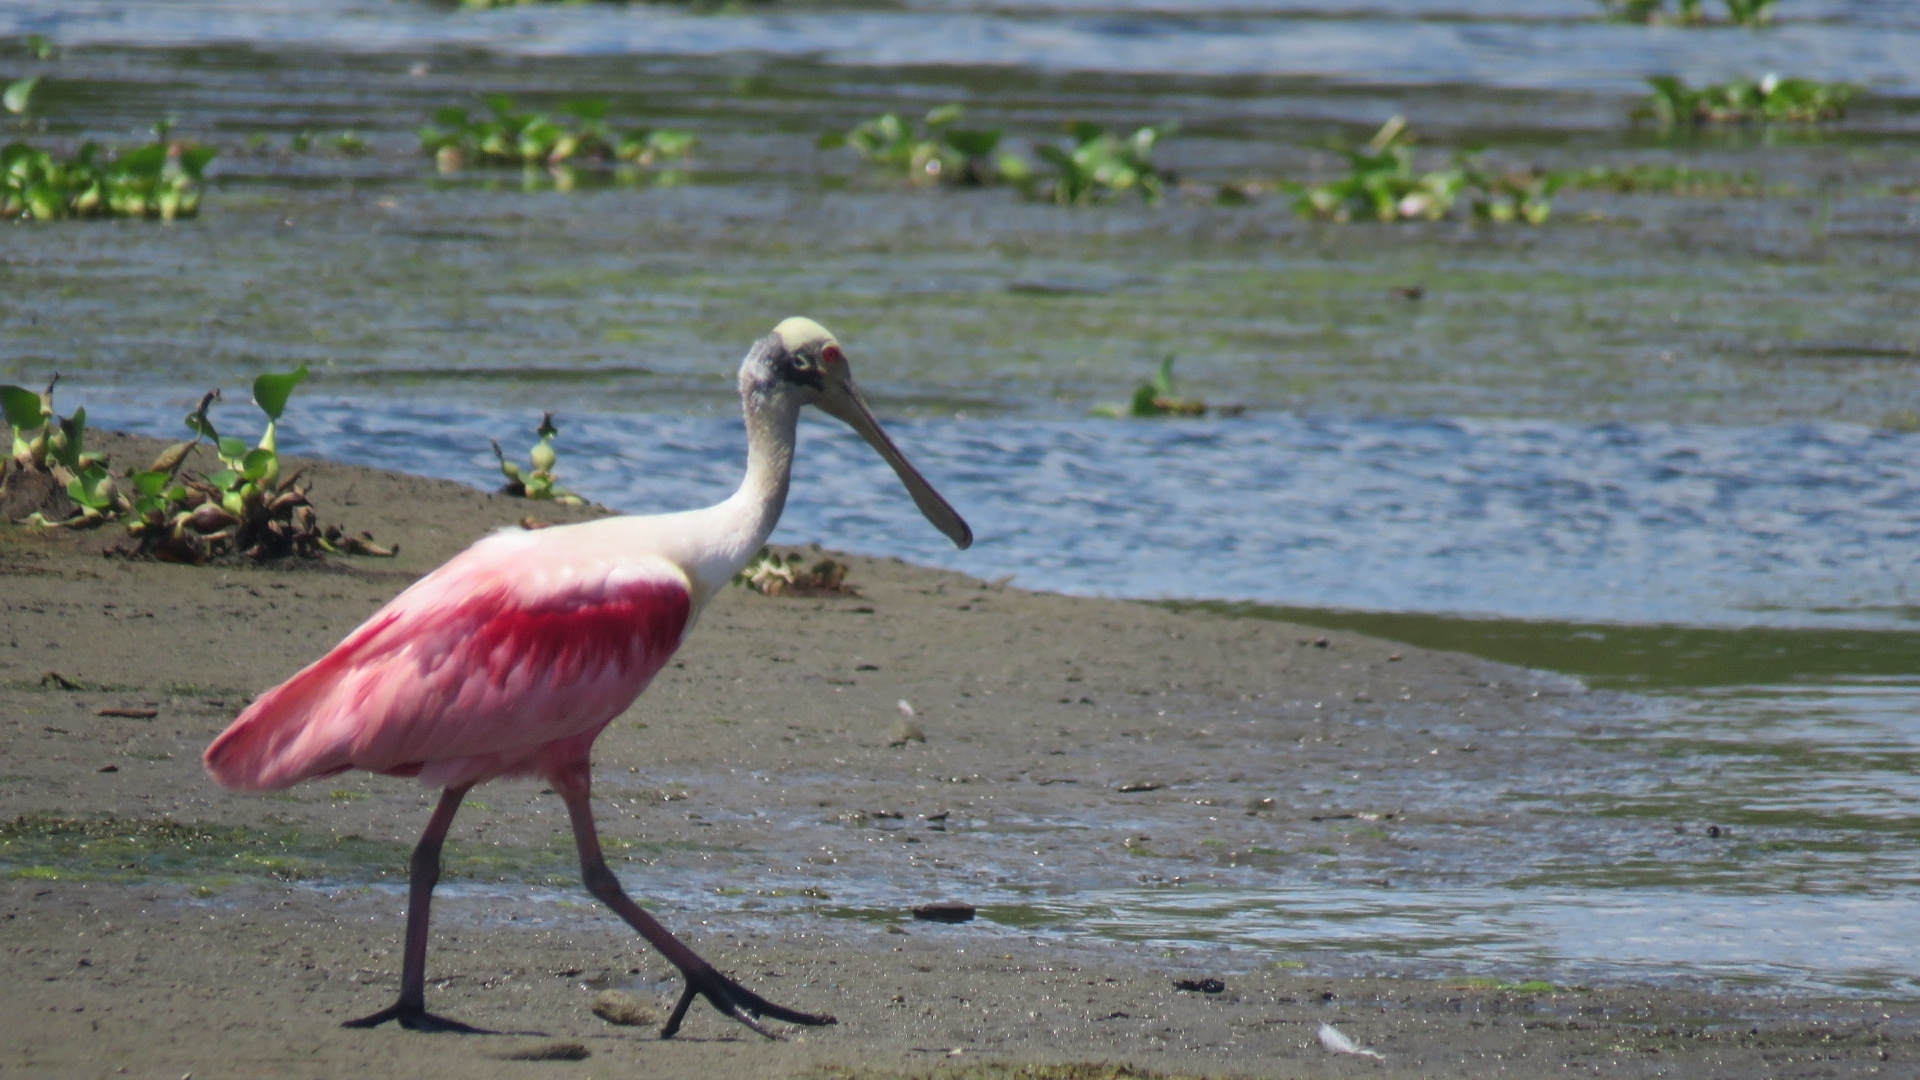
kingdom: Animalia
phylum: Chordata
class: Aves
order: Pelecaniformes
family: Threskiornithidae
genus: Platalea
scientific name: Platalea ajaja
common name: Roseate spoonbill
